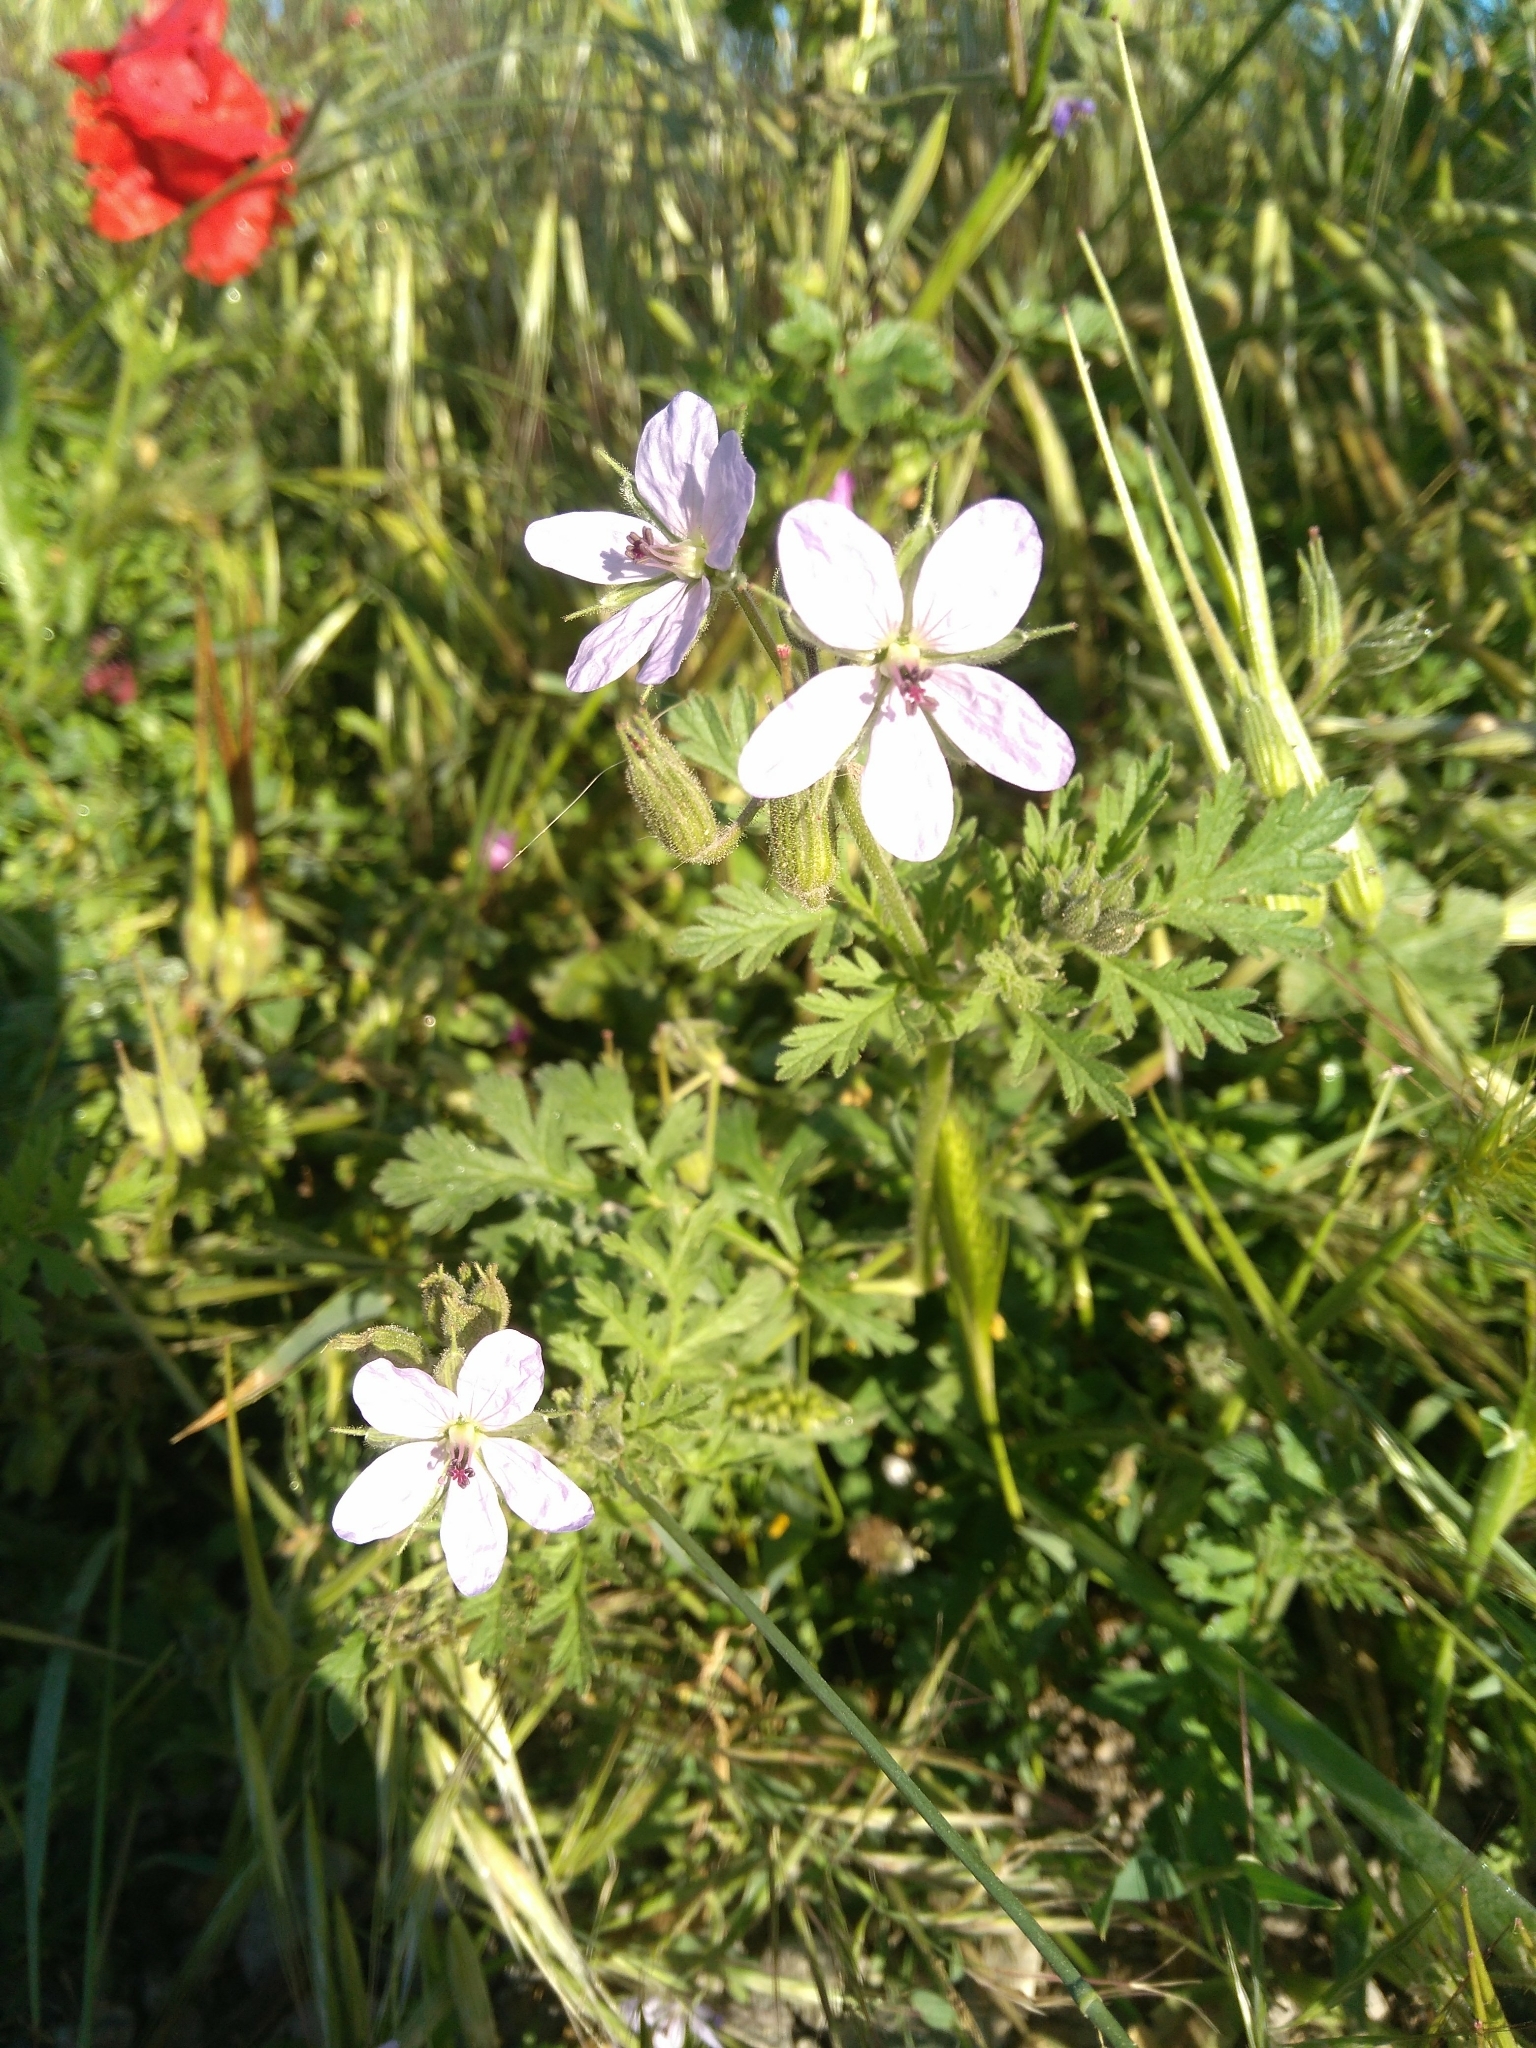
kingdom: Plantae
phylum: Tracheophyta
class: Magnoliopsida
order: Geraniales
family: Geraniaceae
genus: Erodium
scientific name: Erodium ciconium
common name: Common stork's bill
